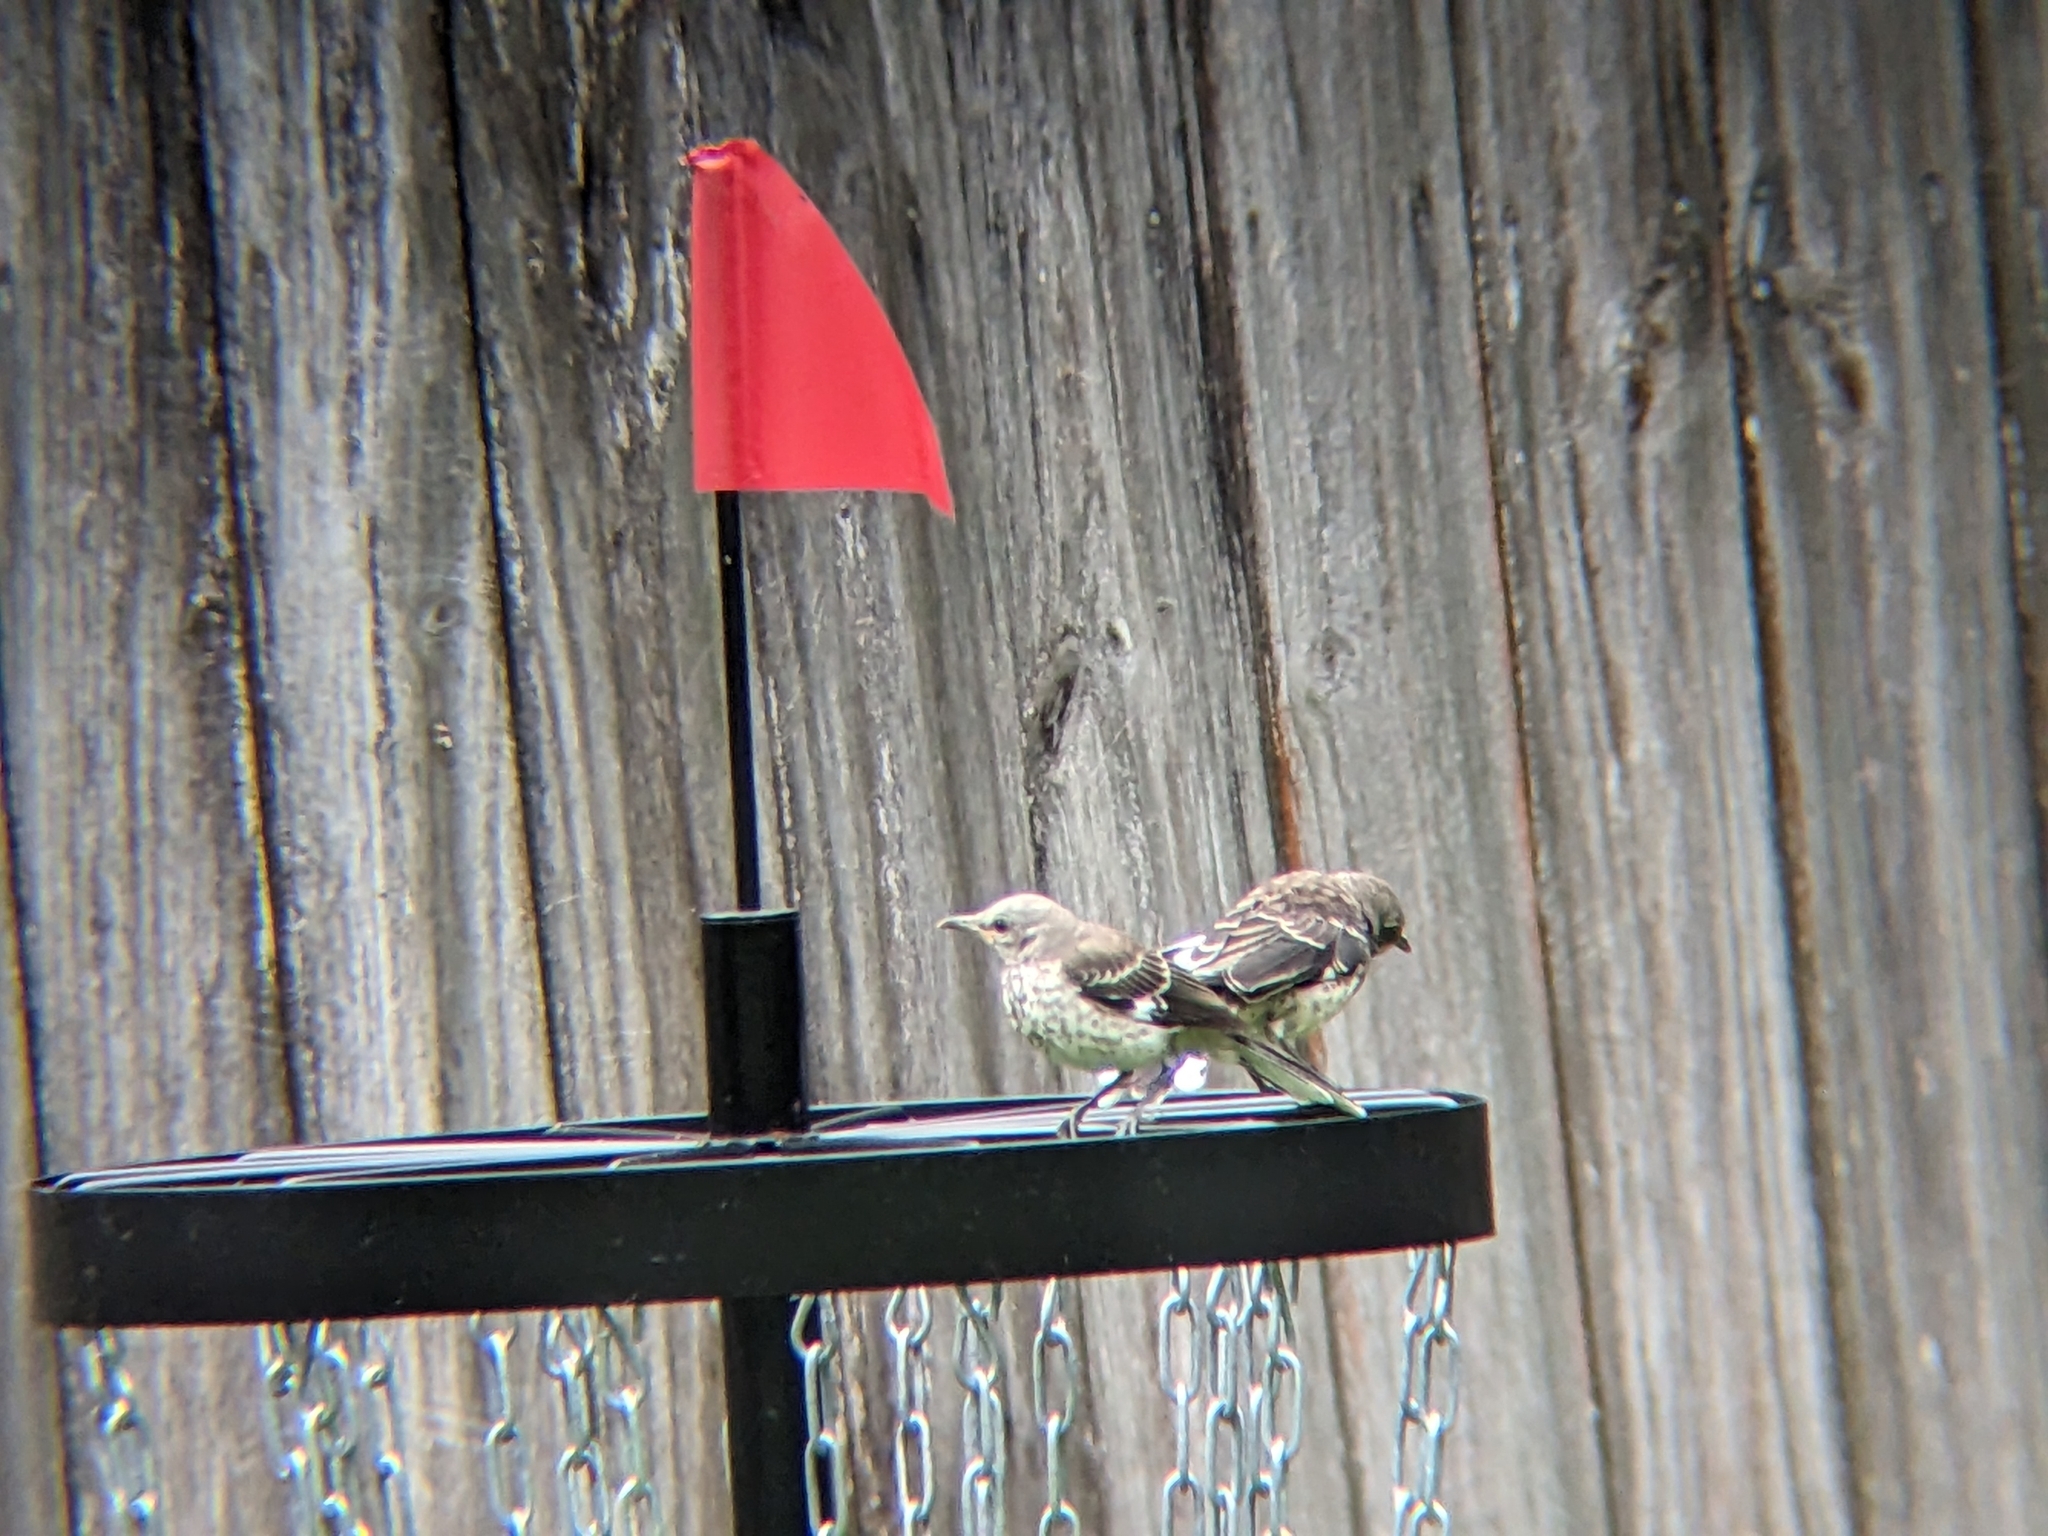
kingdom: Animalia
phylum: Chordata
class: Aves
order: Passeriformes
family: Mimidae
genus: Mimus
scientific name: Mimus polyglottos
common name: Northern mockingbird
